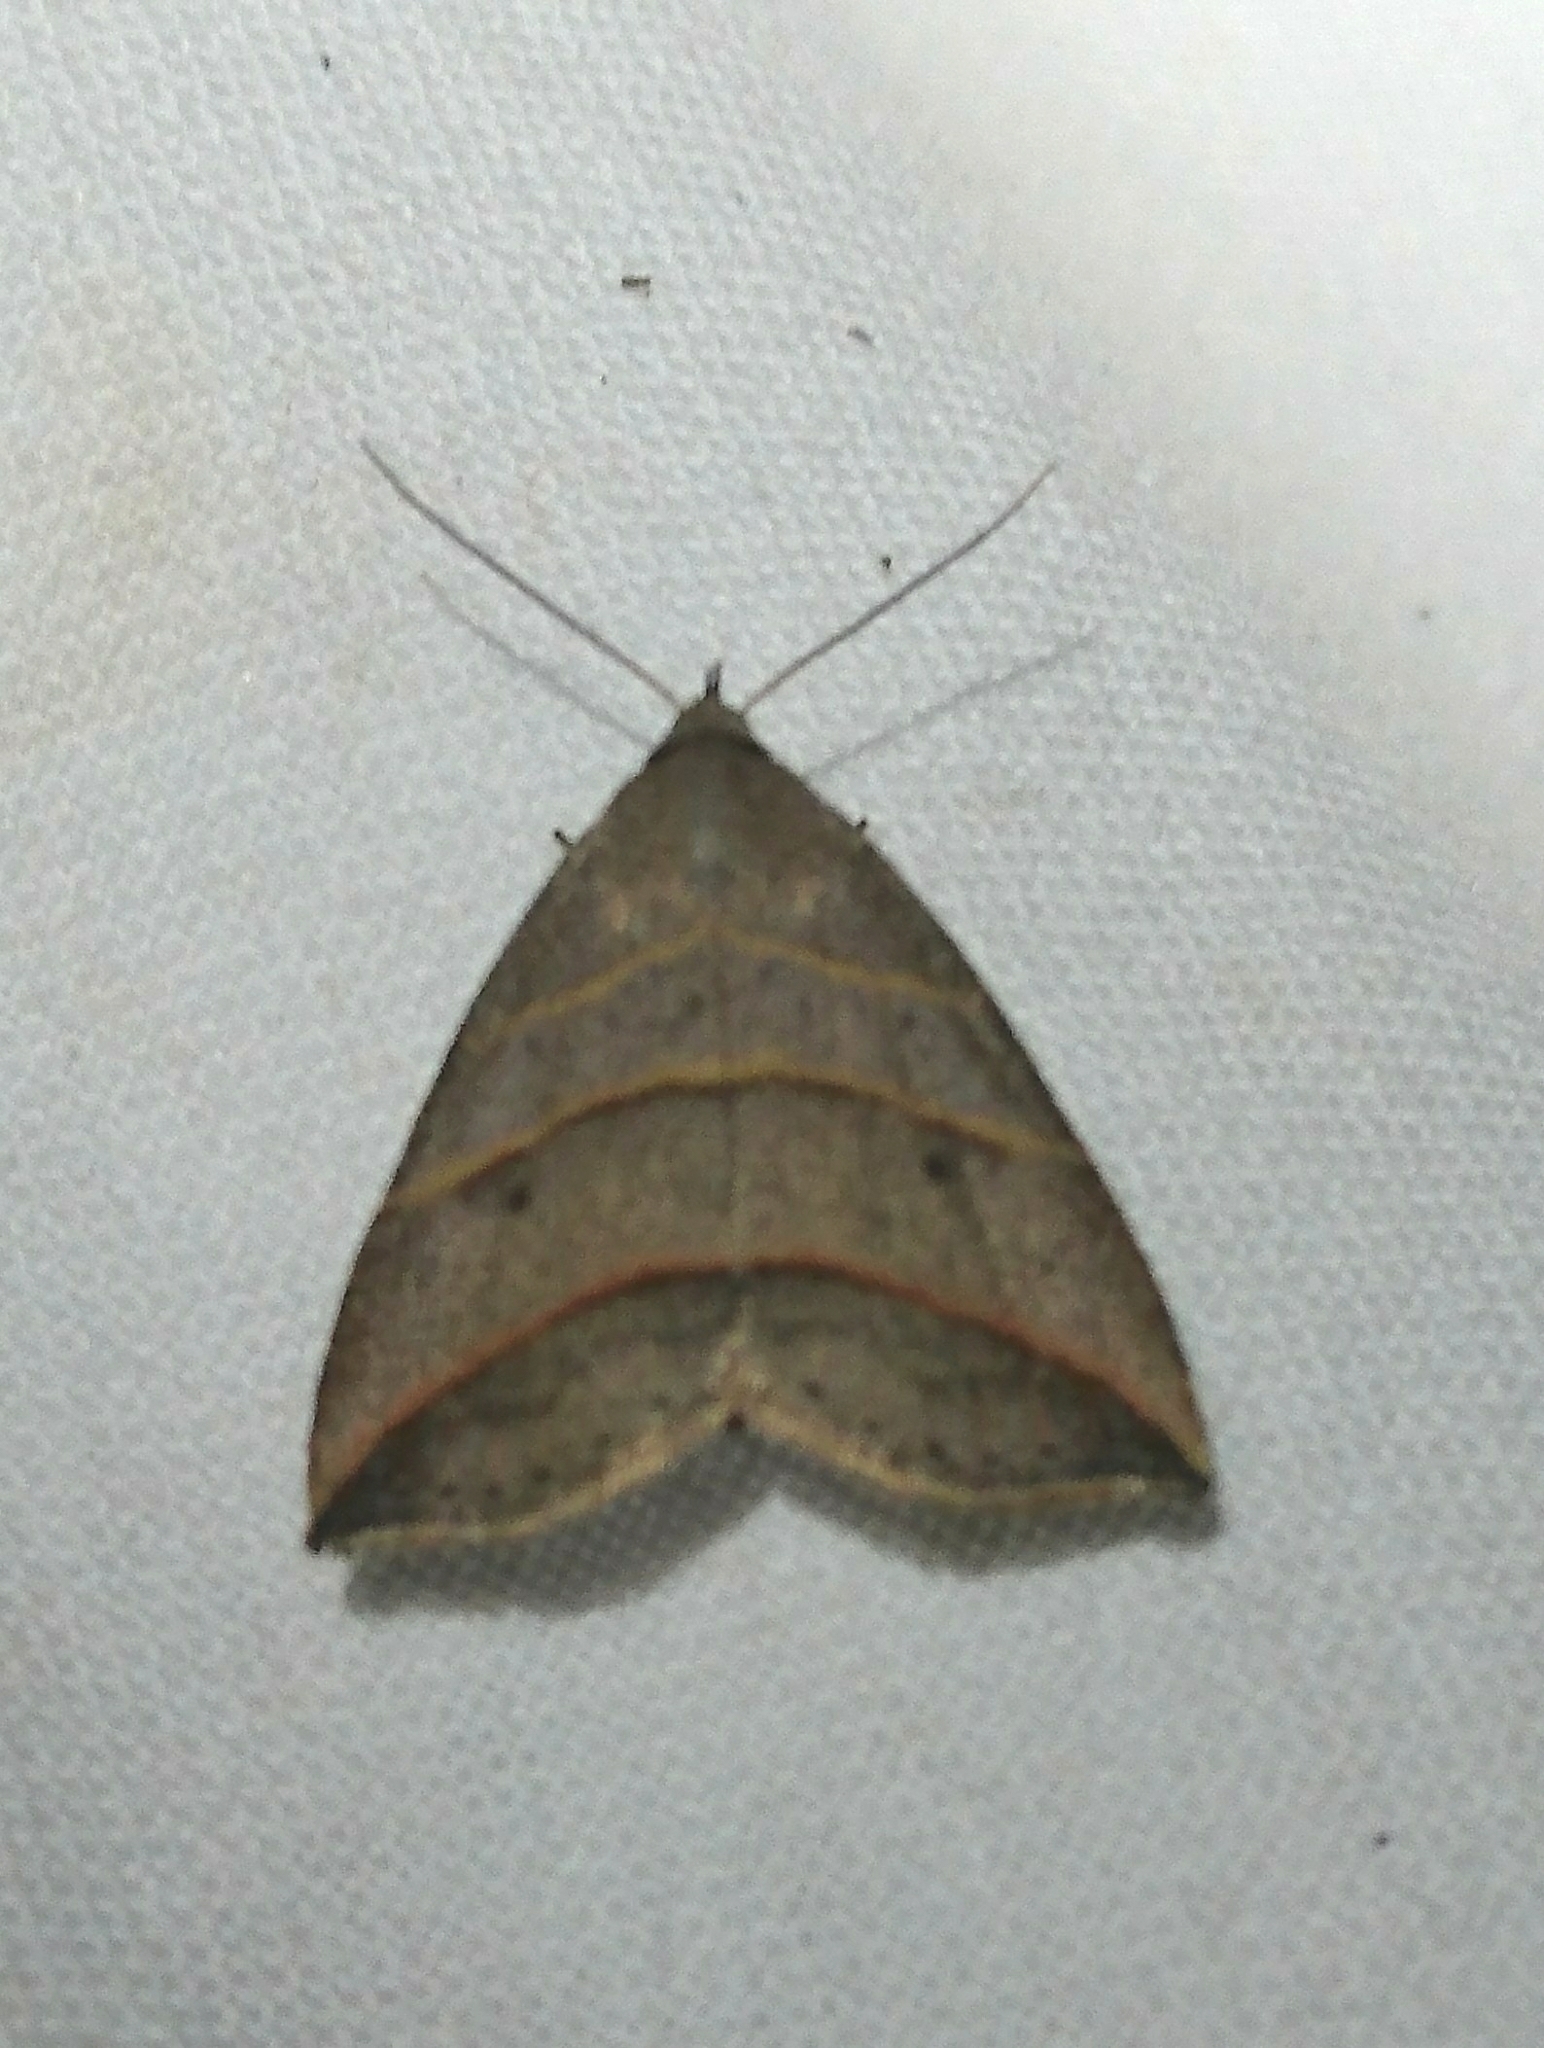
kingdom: Animalia
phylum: Arthropoda
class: Insecta
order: Lepidoptera
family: Erebidae
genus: Colobochyla
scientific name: Colobochyla interpuncta
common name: Yellow-lined owlet
